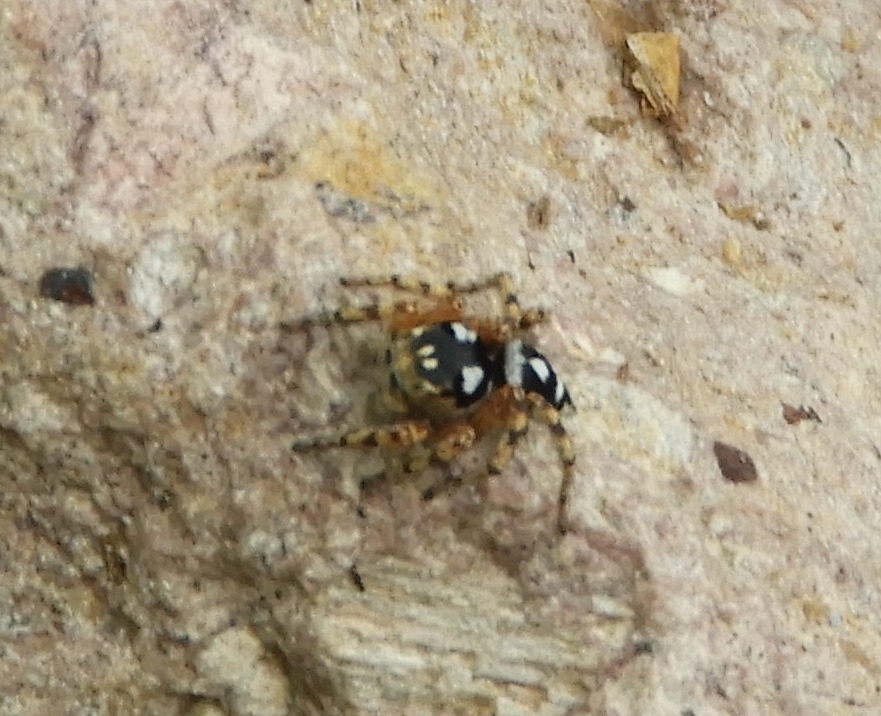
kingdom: Animalia
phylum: Arthropoda
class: Arachnida
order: Araneae
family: Salticidae
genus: Habronattus
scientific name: Habronattus fallax
